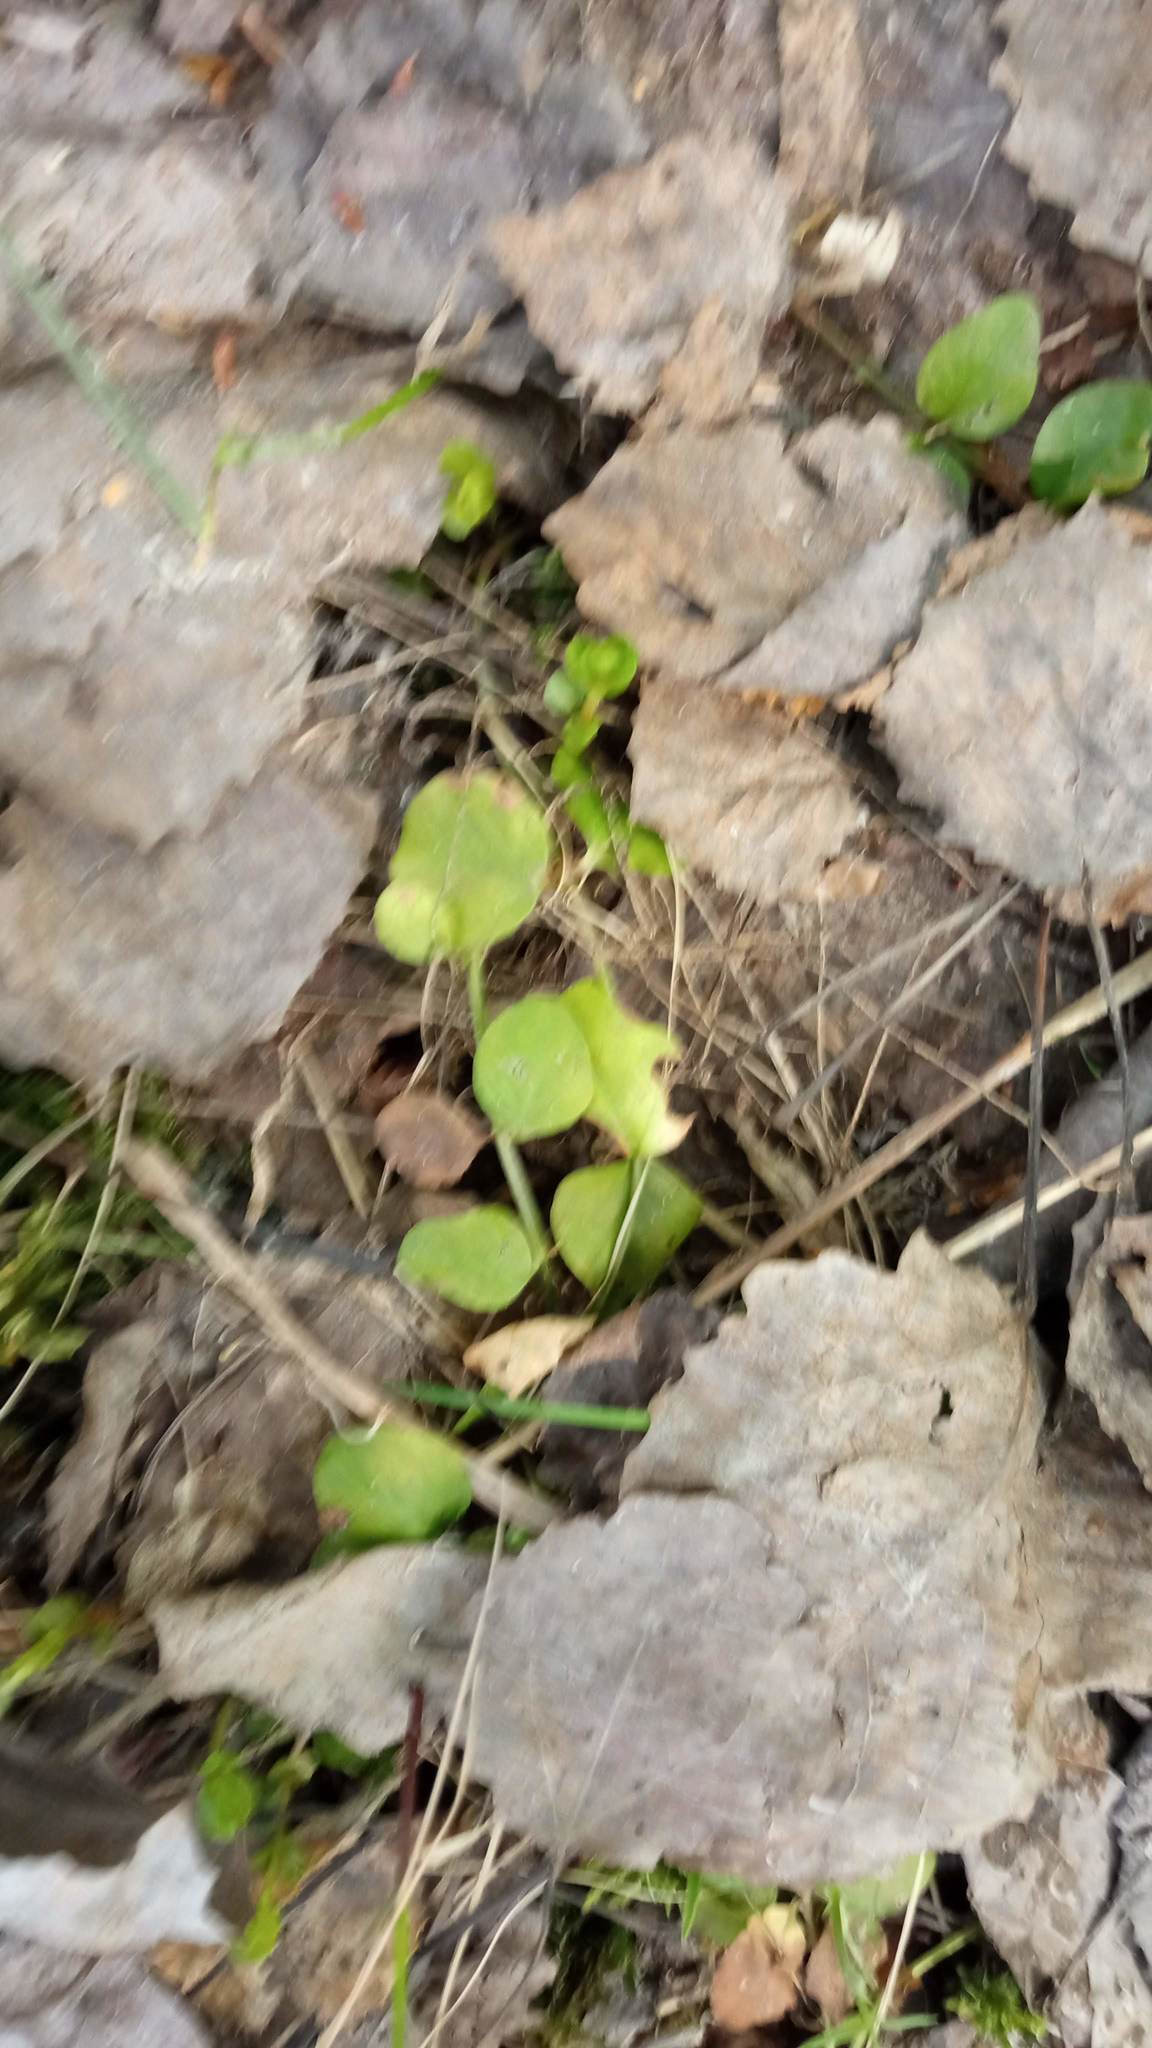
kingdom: Plantae
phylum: Tracheophyta
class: Magnoliopsida
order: Ericales
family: Primulaceae
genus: Lysimachia
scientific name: Lysimachia nummularia
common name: Moneywort
